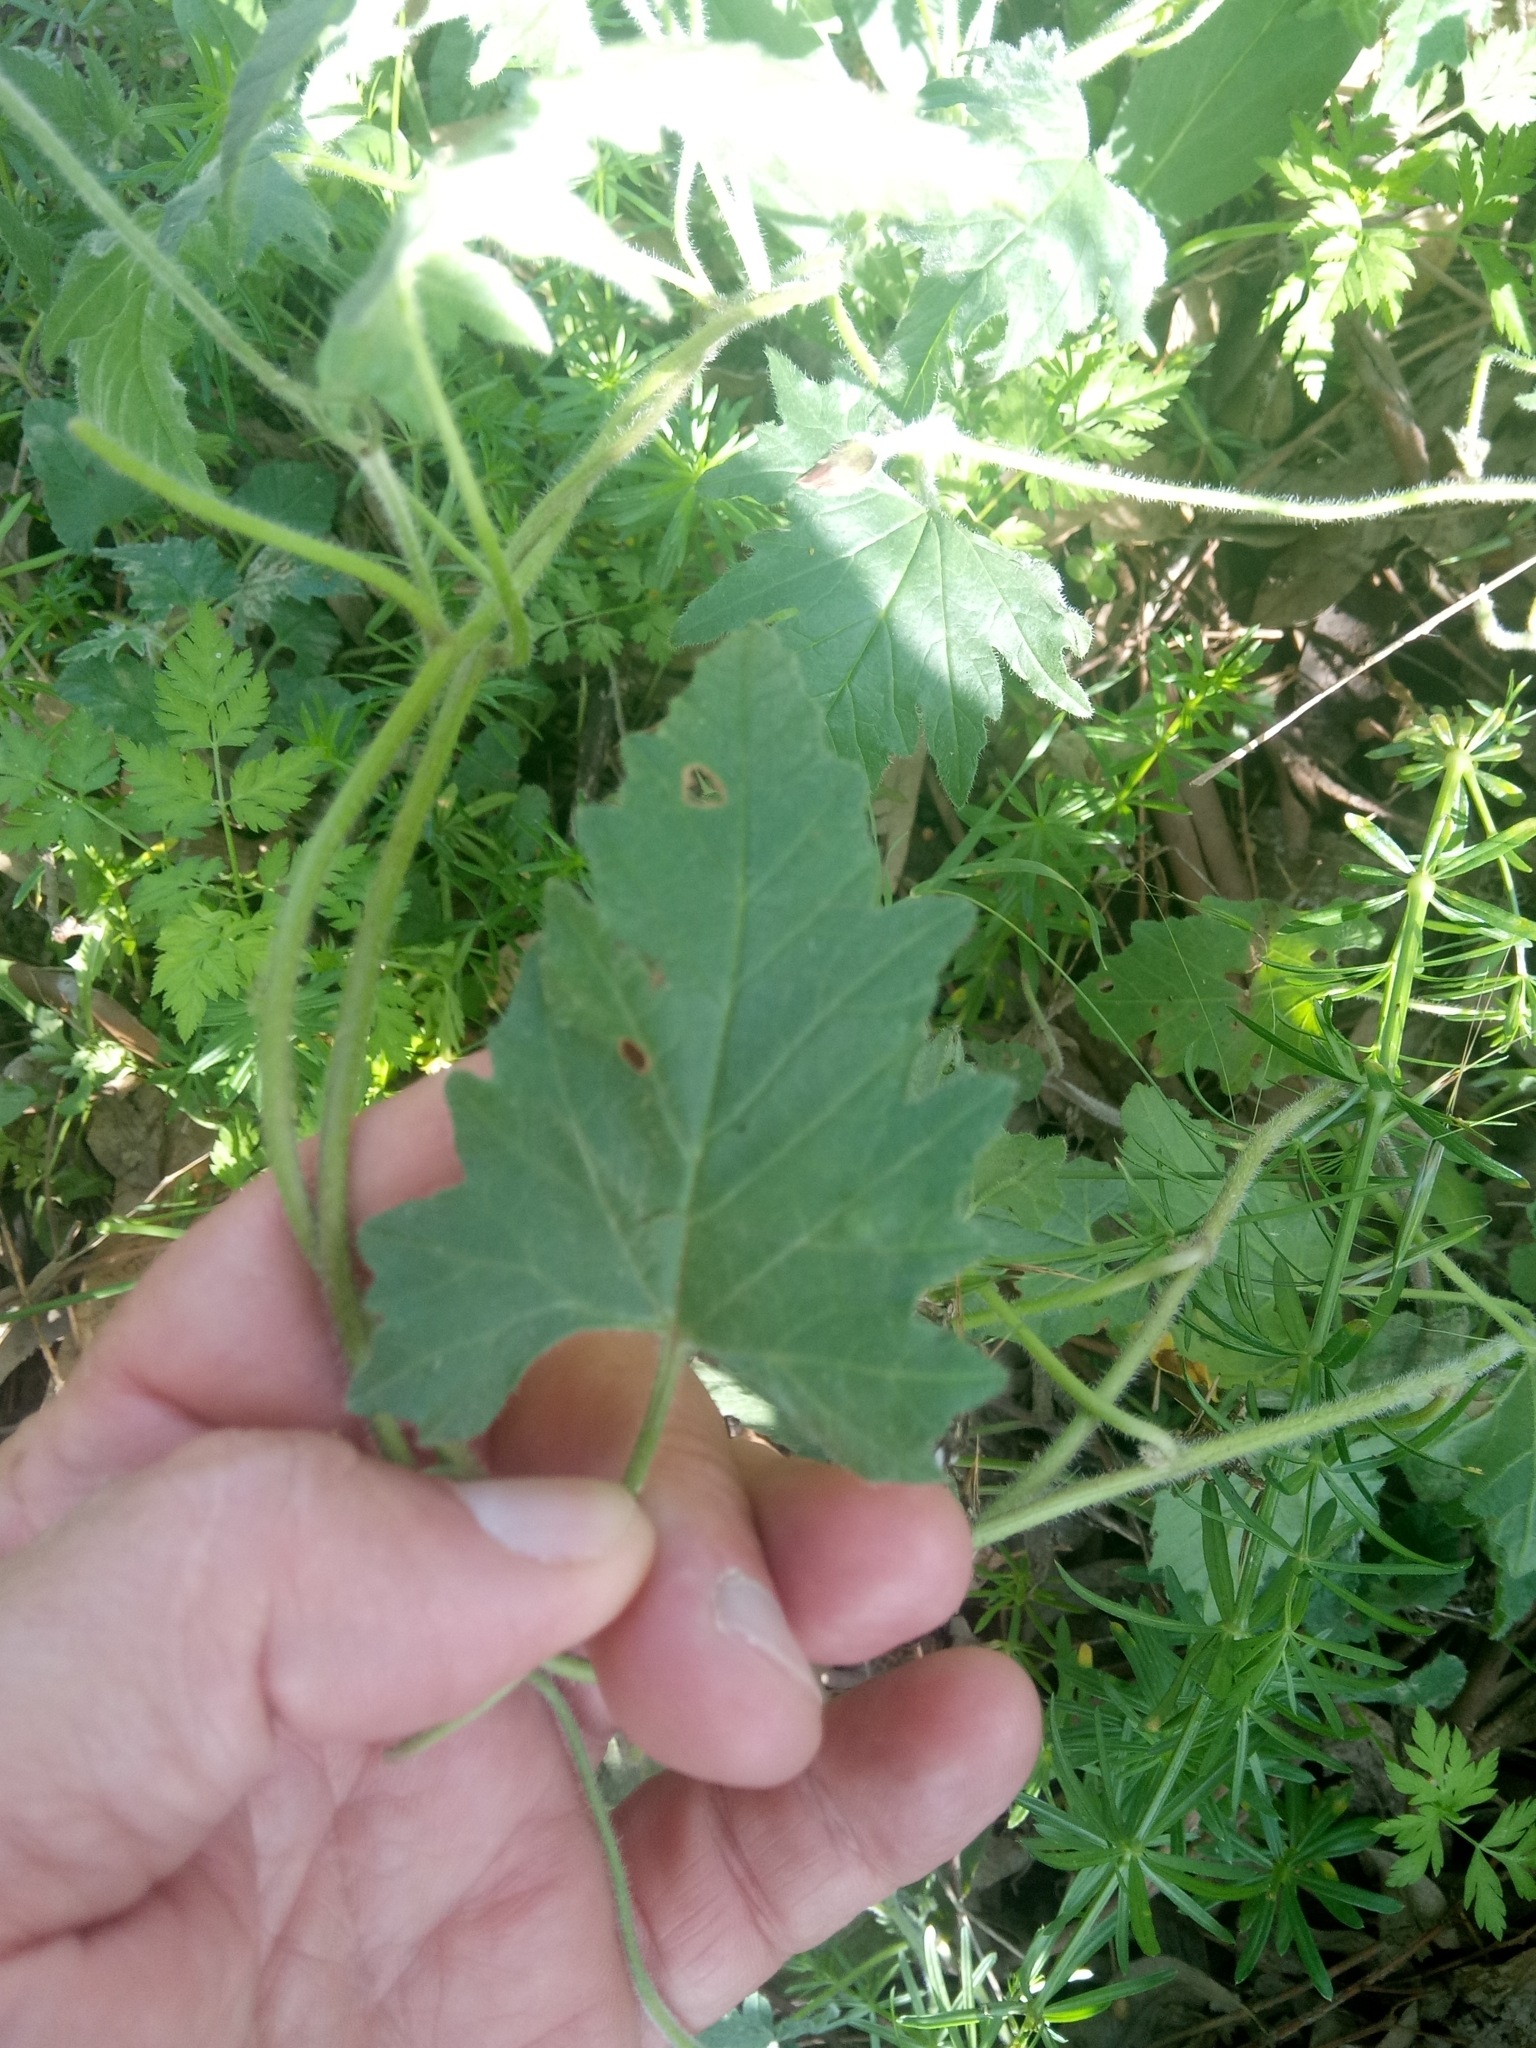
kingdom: Plantae
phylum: Tracheophyta
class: Magnoliopsida
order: Solanales
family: Convolvulaceae
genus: Convolvulus
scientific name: Convolvulus althaeoides
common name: Mallow bindweed
